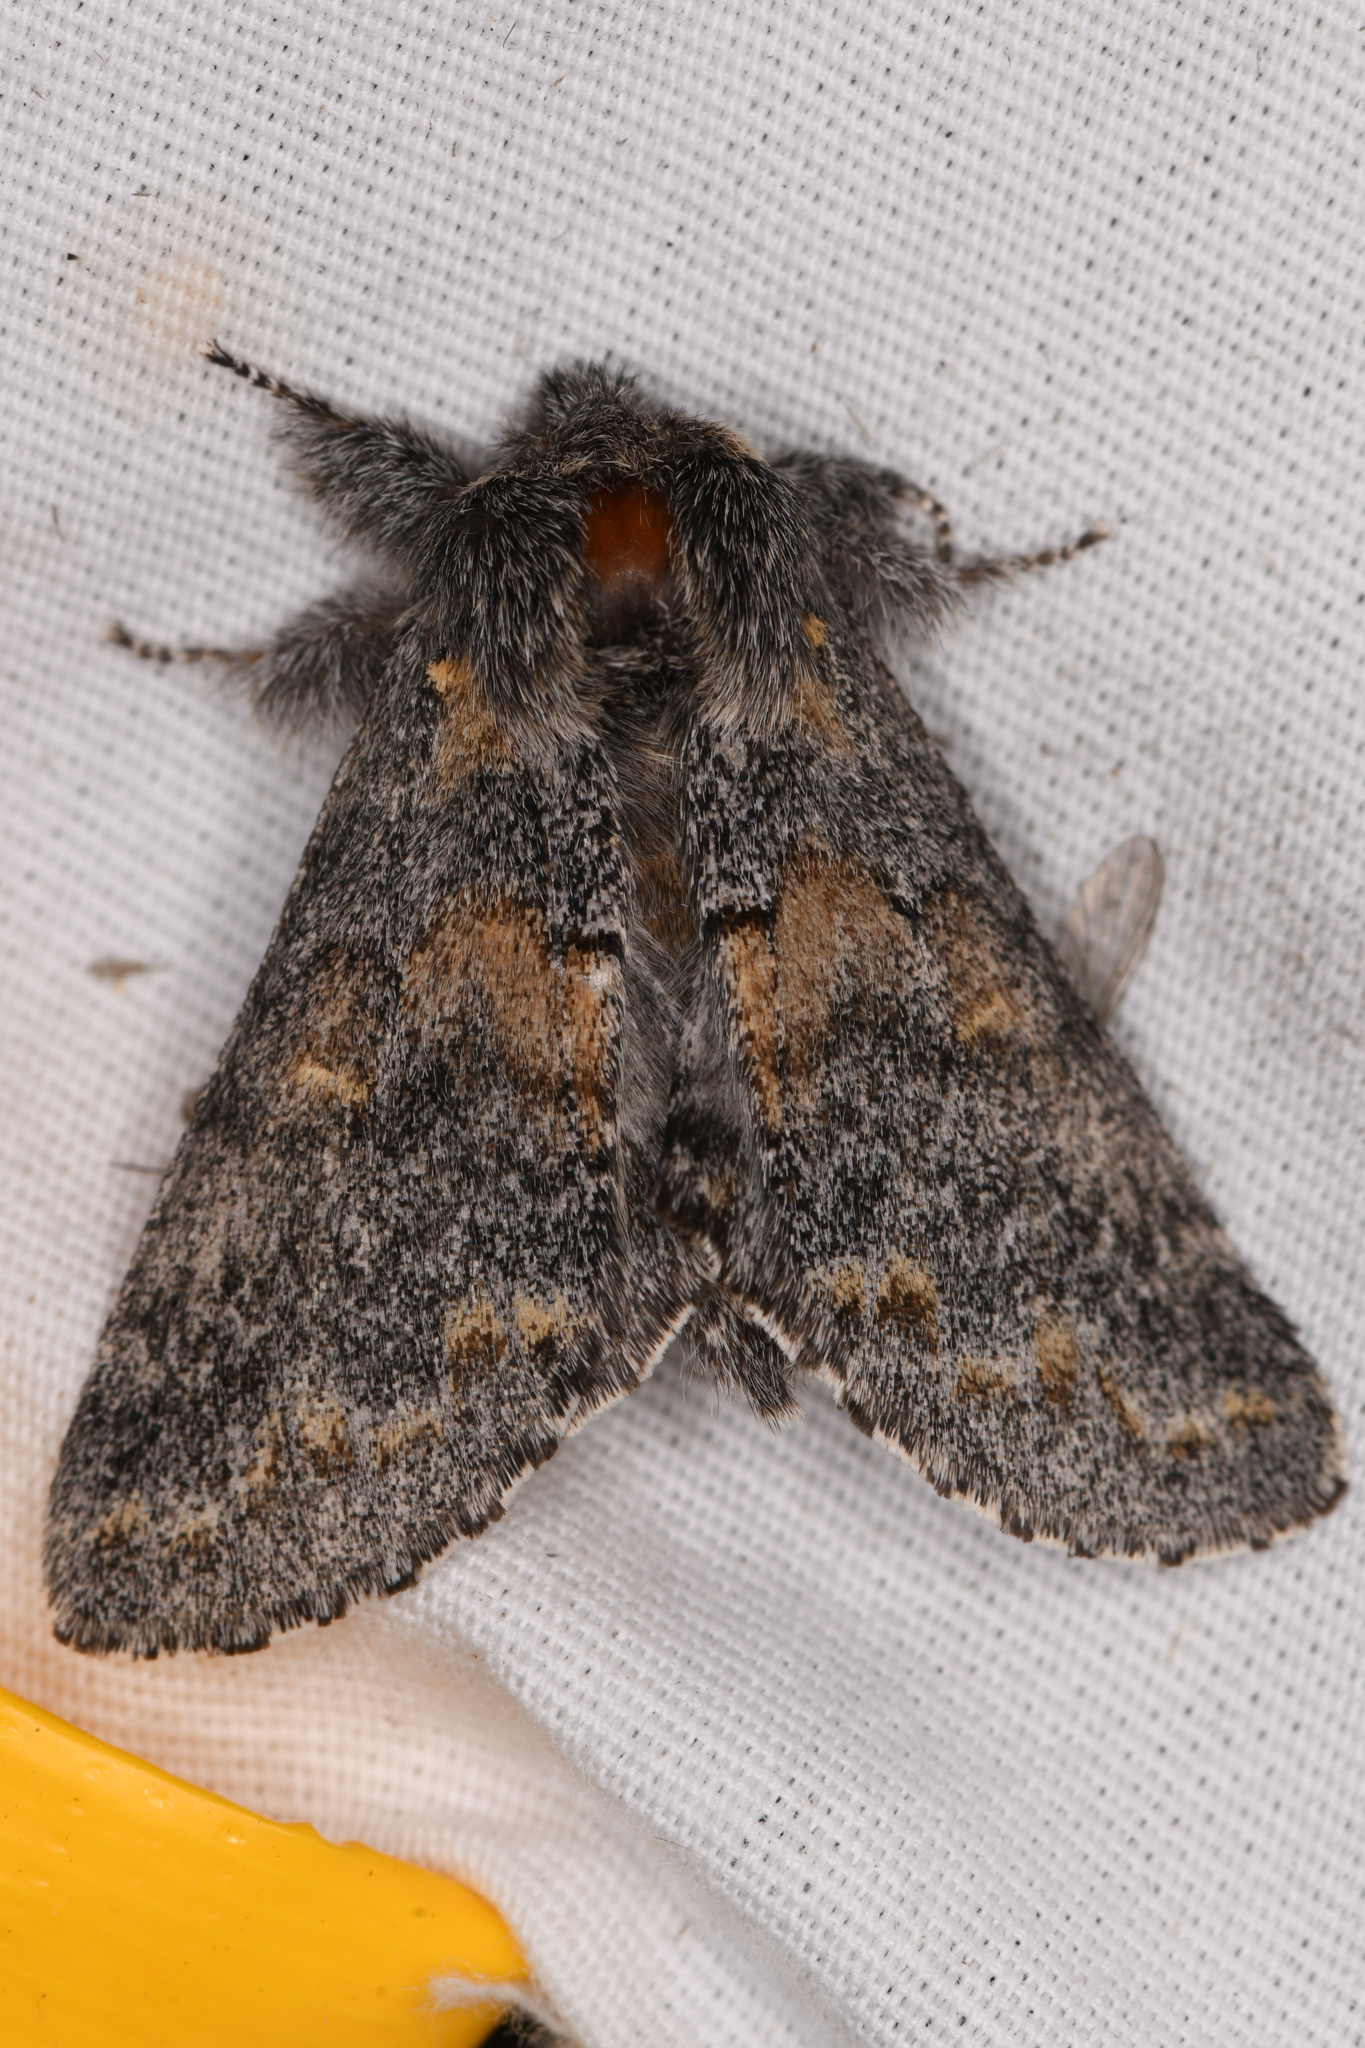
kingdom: Animalia
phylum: Arthropoda
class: Insecta
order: Lepidoptera
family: Notodontidae
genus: Gluphisia
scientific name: Gluphisia severa
